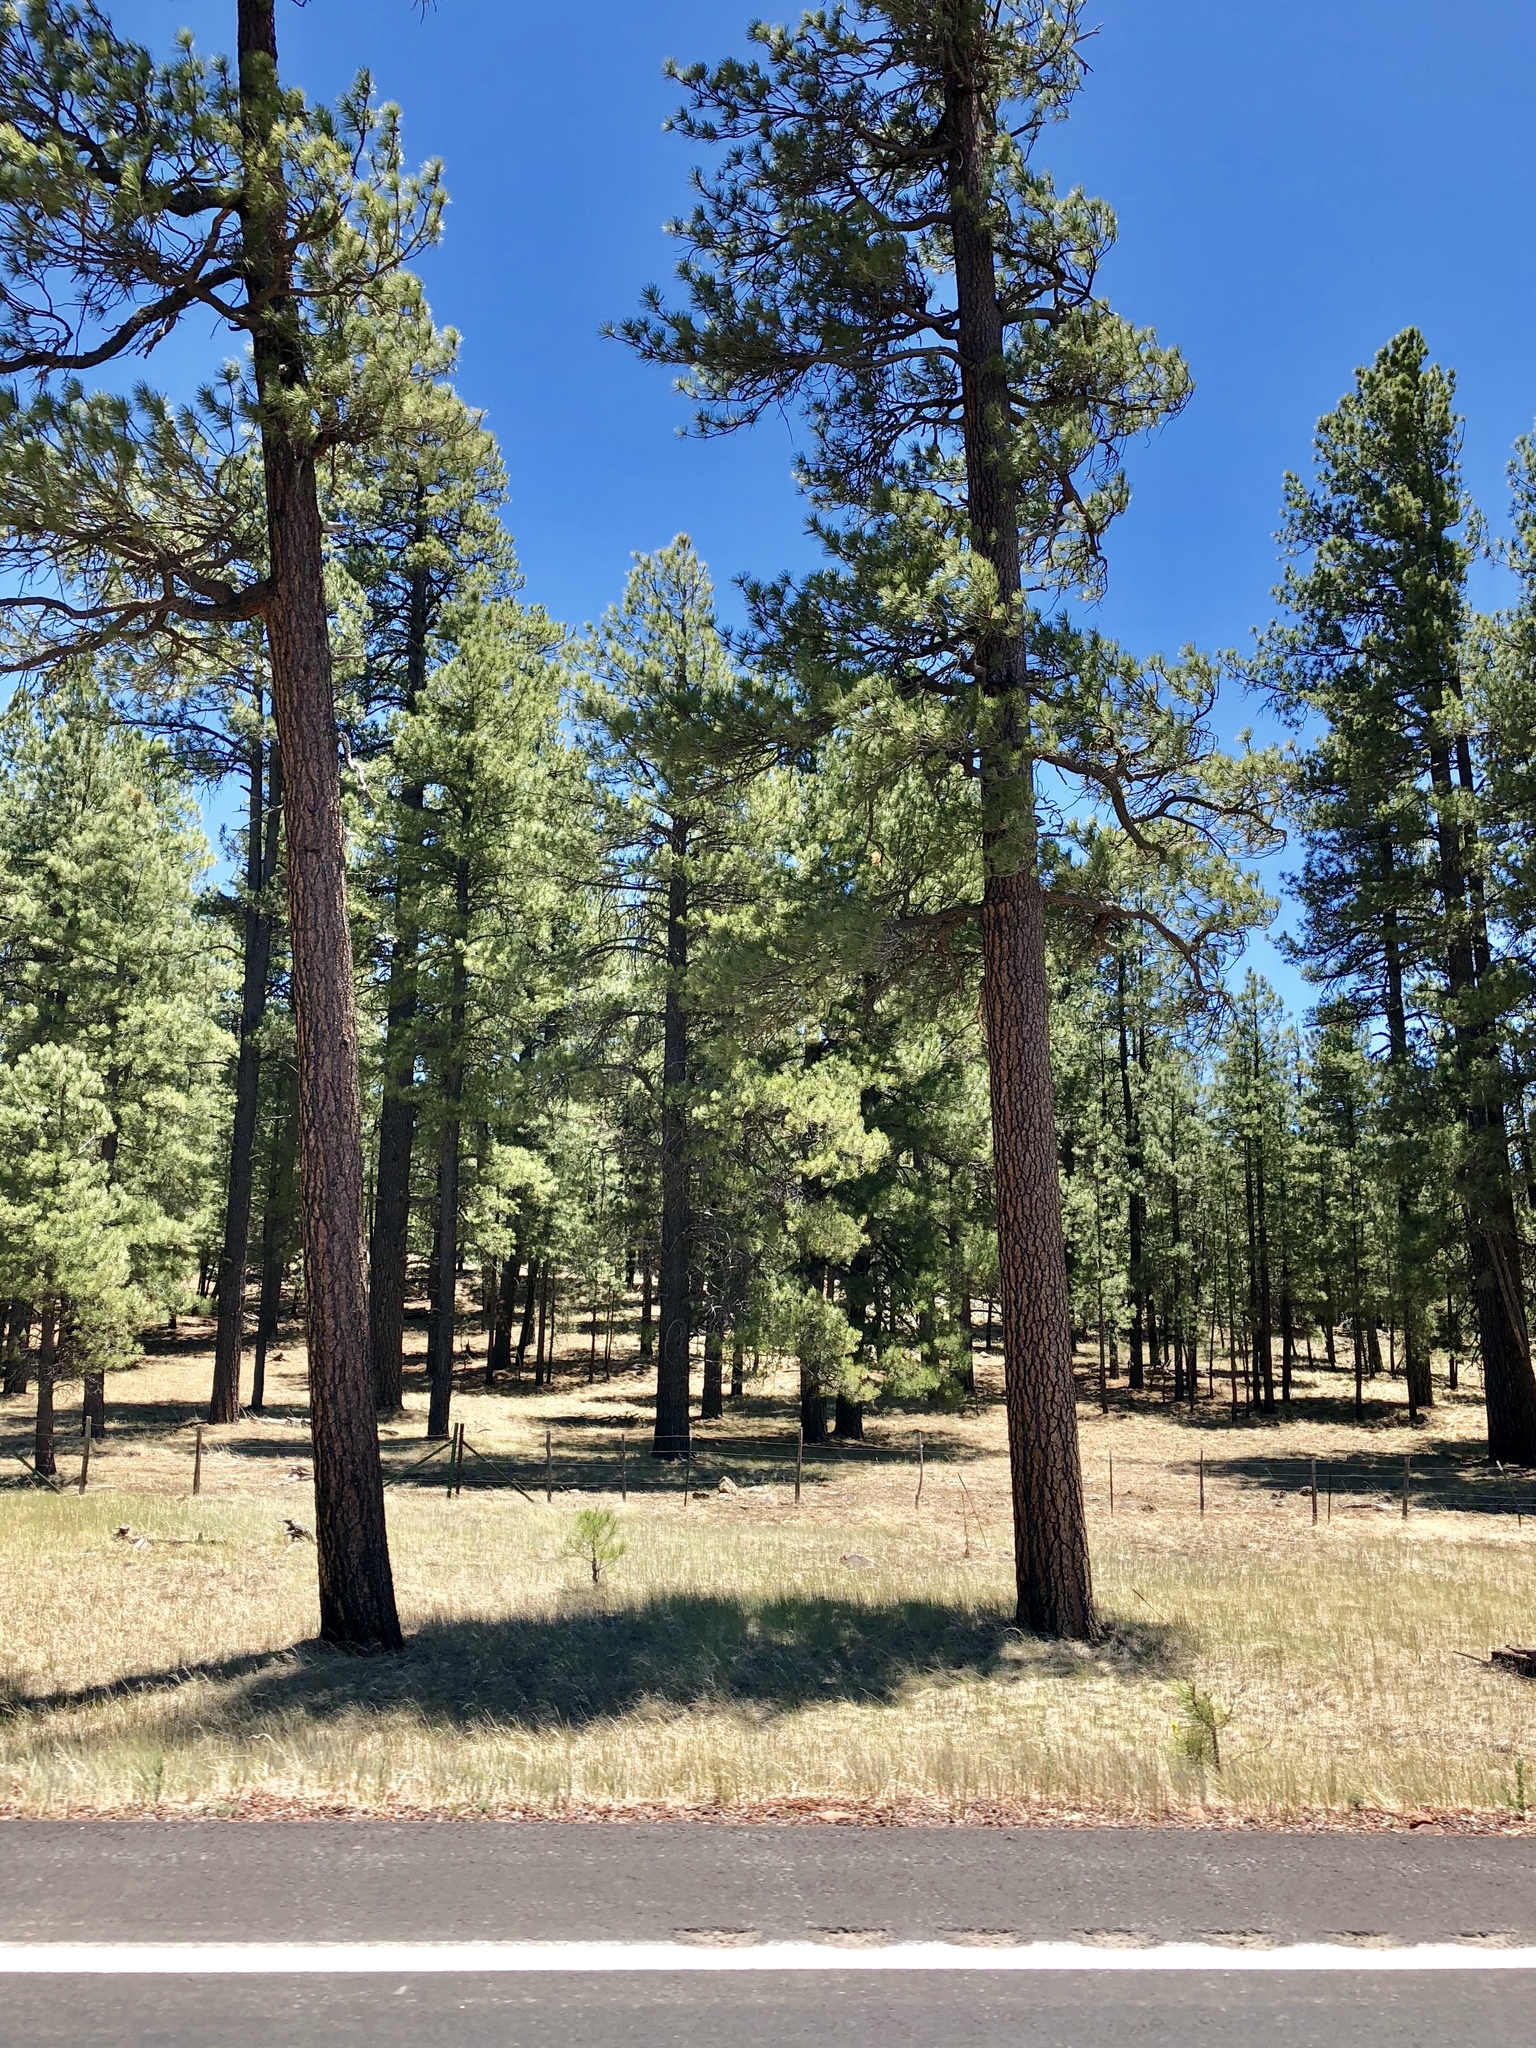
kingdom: Plantae
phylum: Tracheophyta
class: Pinopsida
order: Pinales
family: Pinaceae
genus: Pinus
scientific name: Pinus ponderosa
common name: Western yellow-pine
